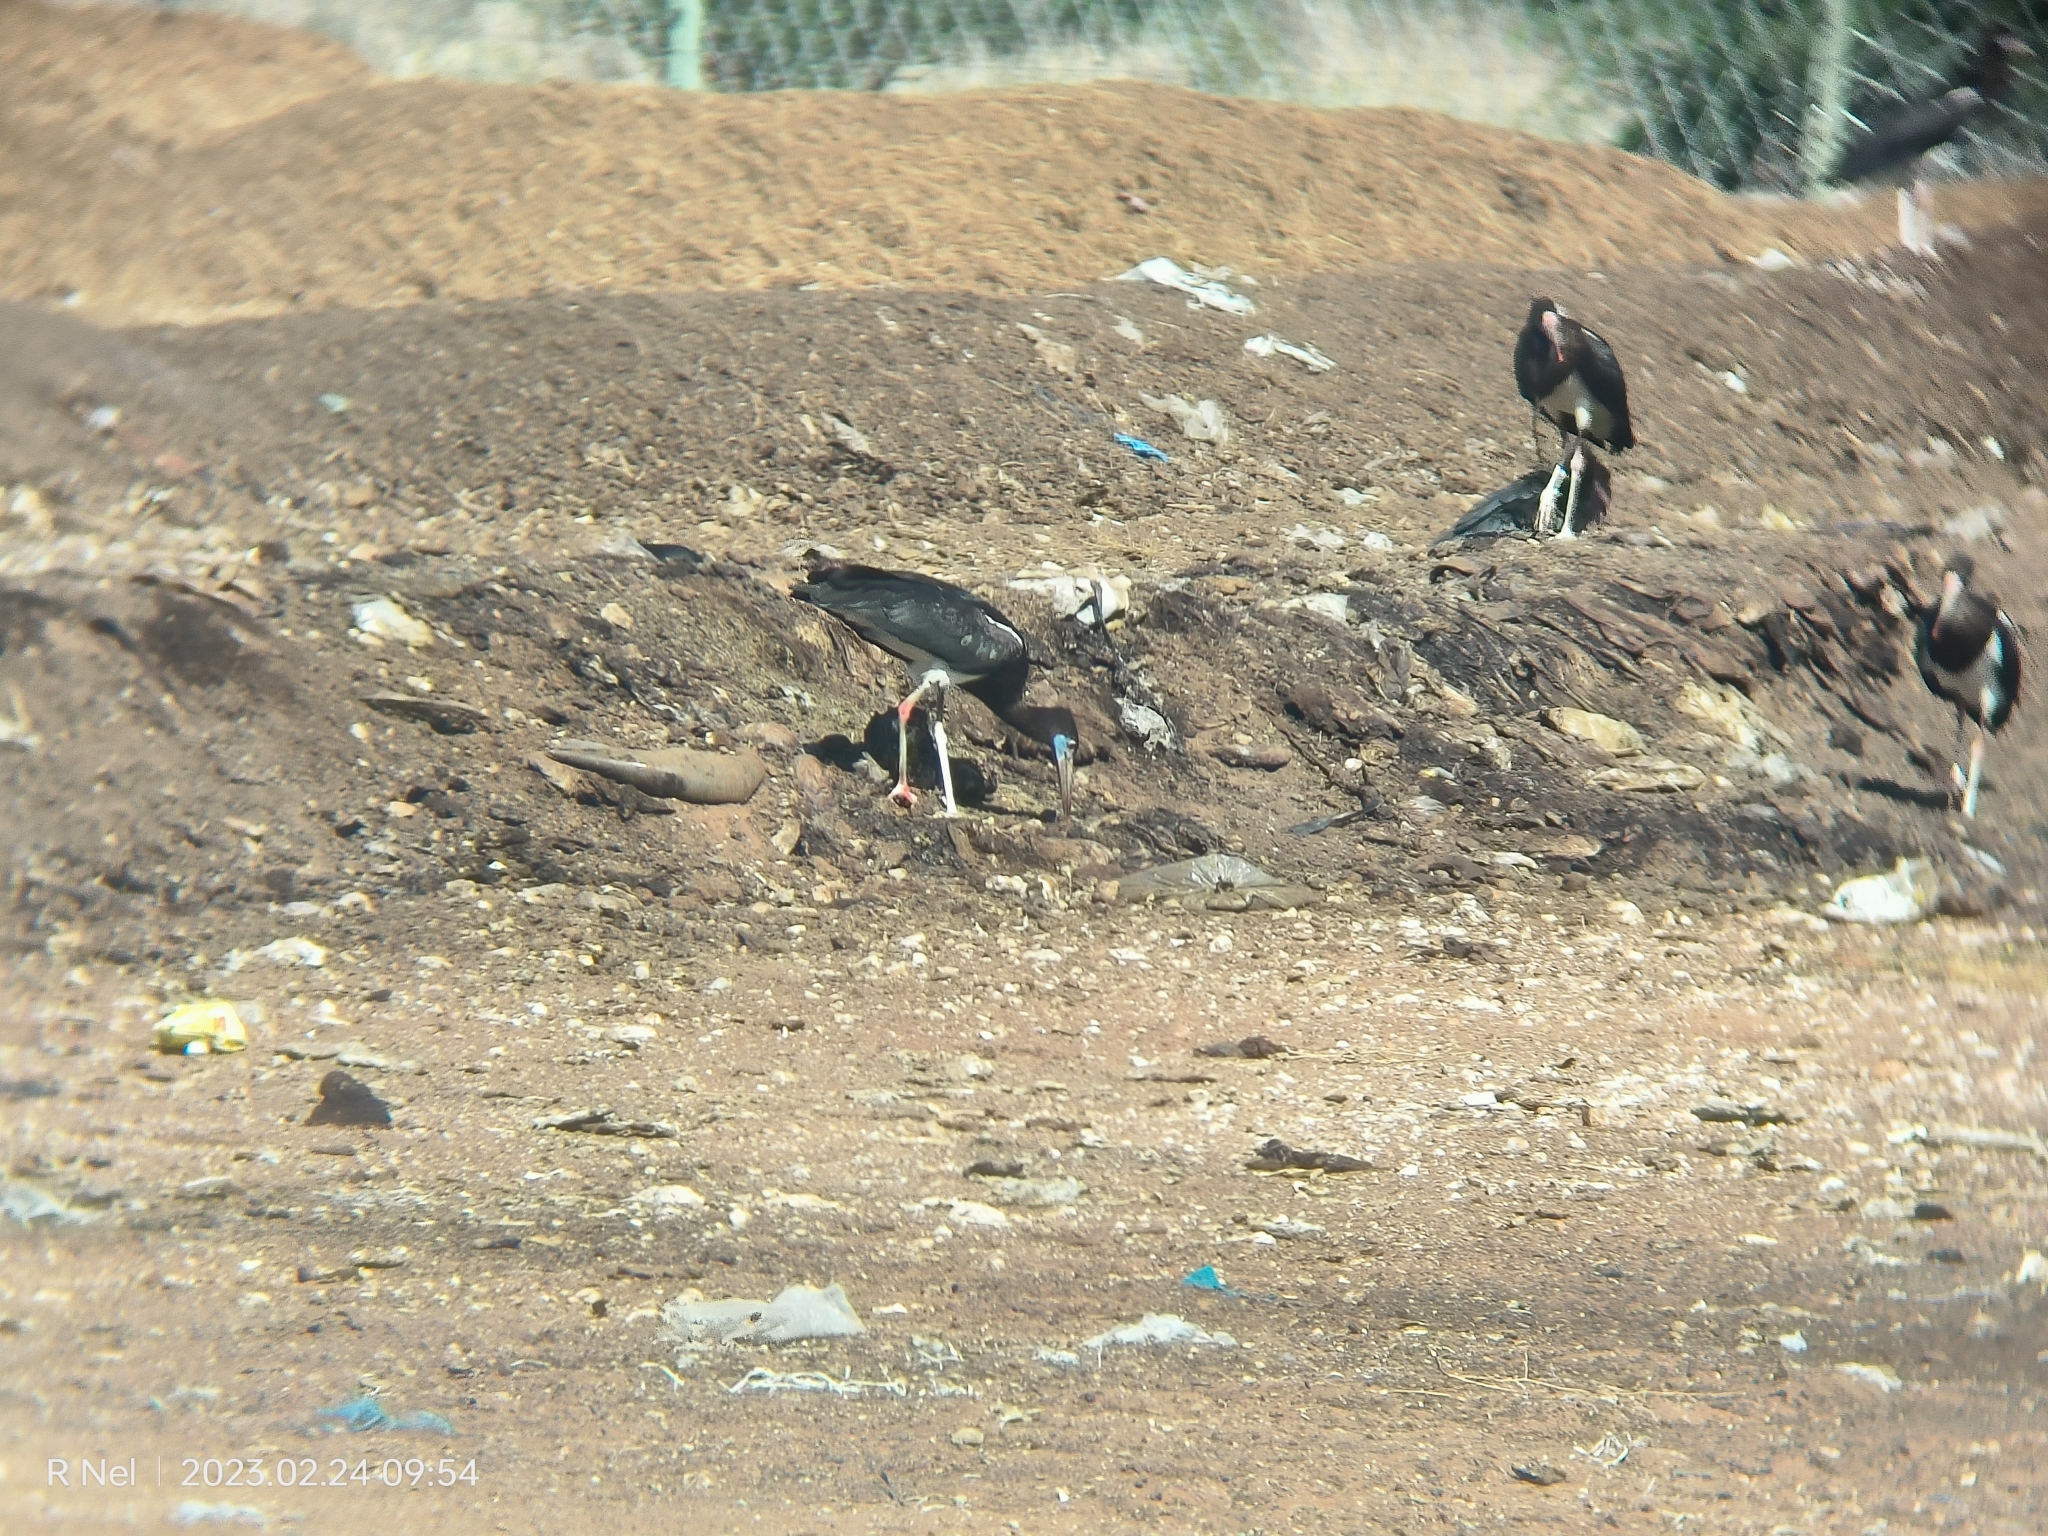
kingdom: Animalia
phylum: Chordata
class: Aves
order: Ciconiiformes
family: Ciconiidae
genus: Ciconia
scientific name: Ciconia abdimii
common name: Abdim's stork
